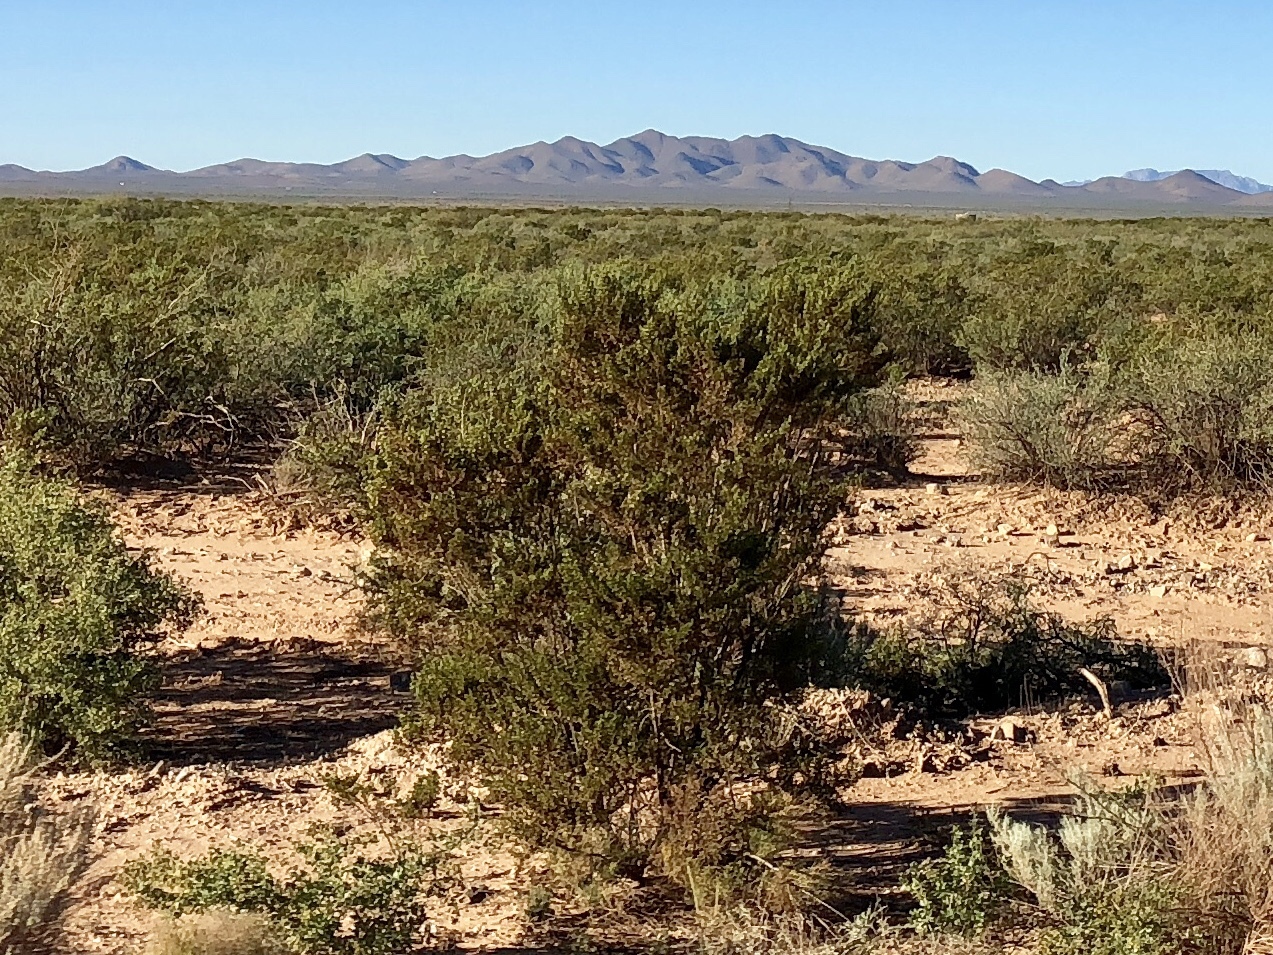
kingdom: Plantae
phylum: Tracheophyta
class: Magnoliopsida
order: Zygophyllales
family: Zygophyllaceae
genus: Larrea
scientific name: Larrea tridentata
